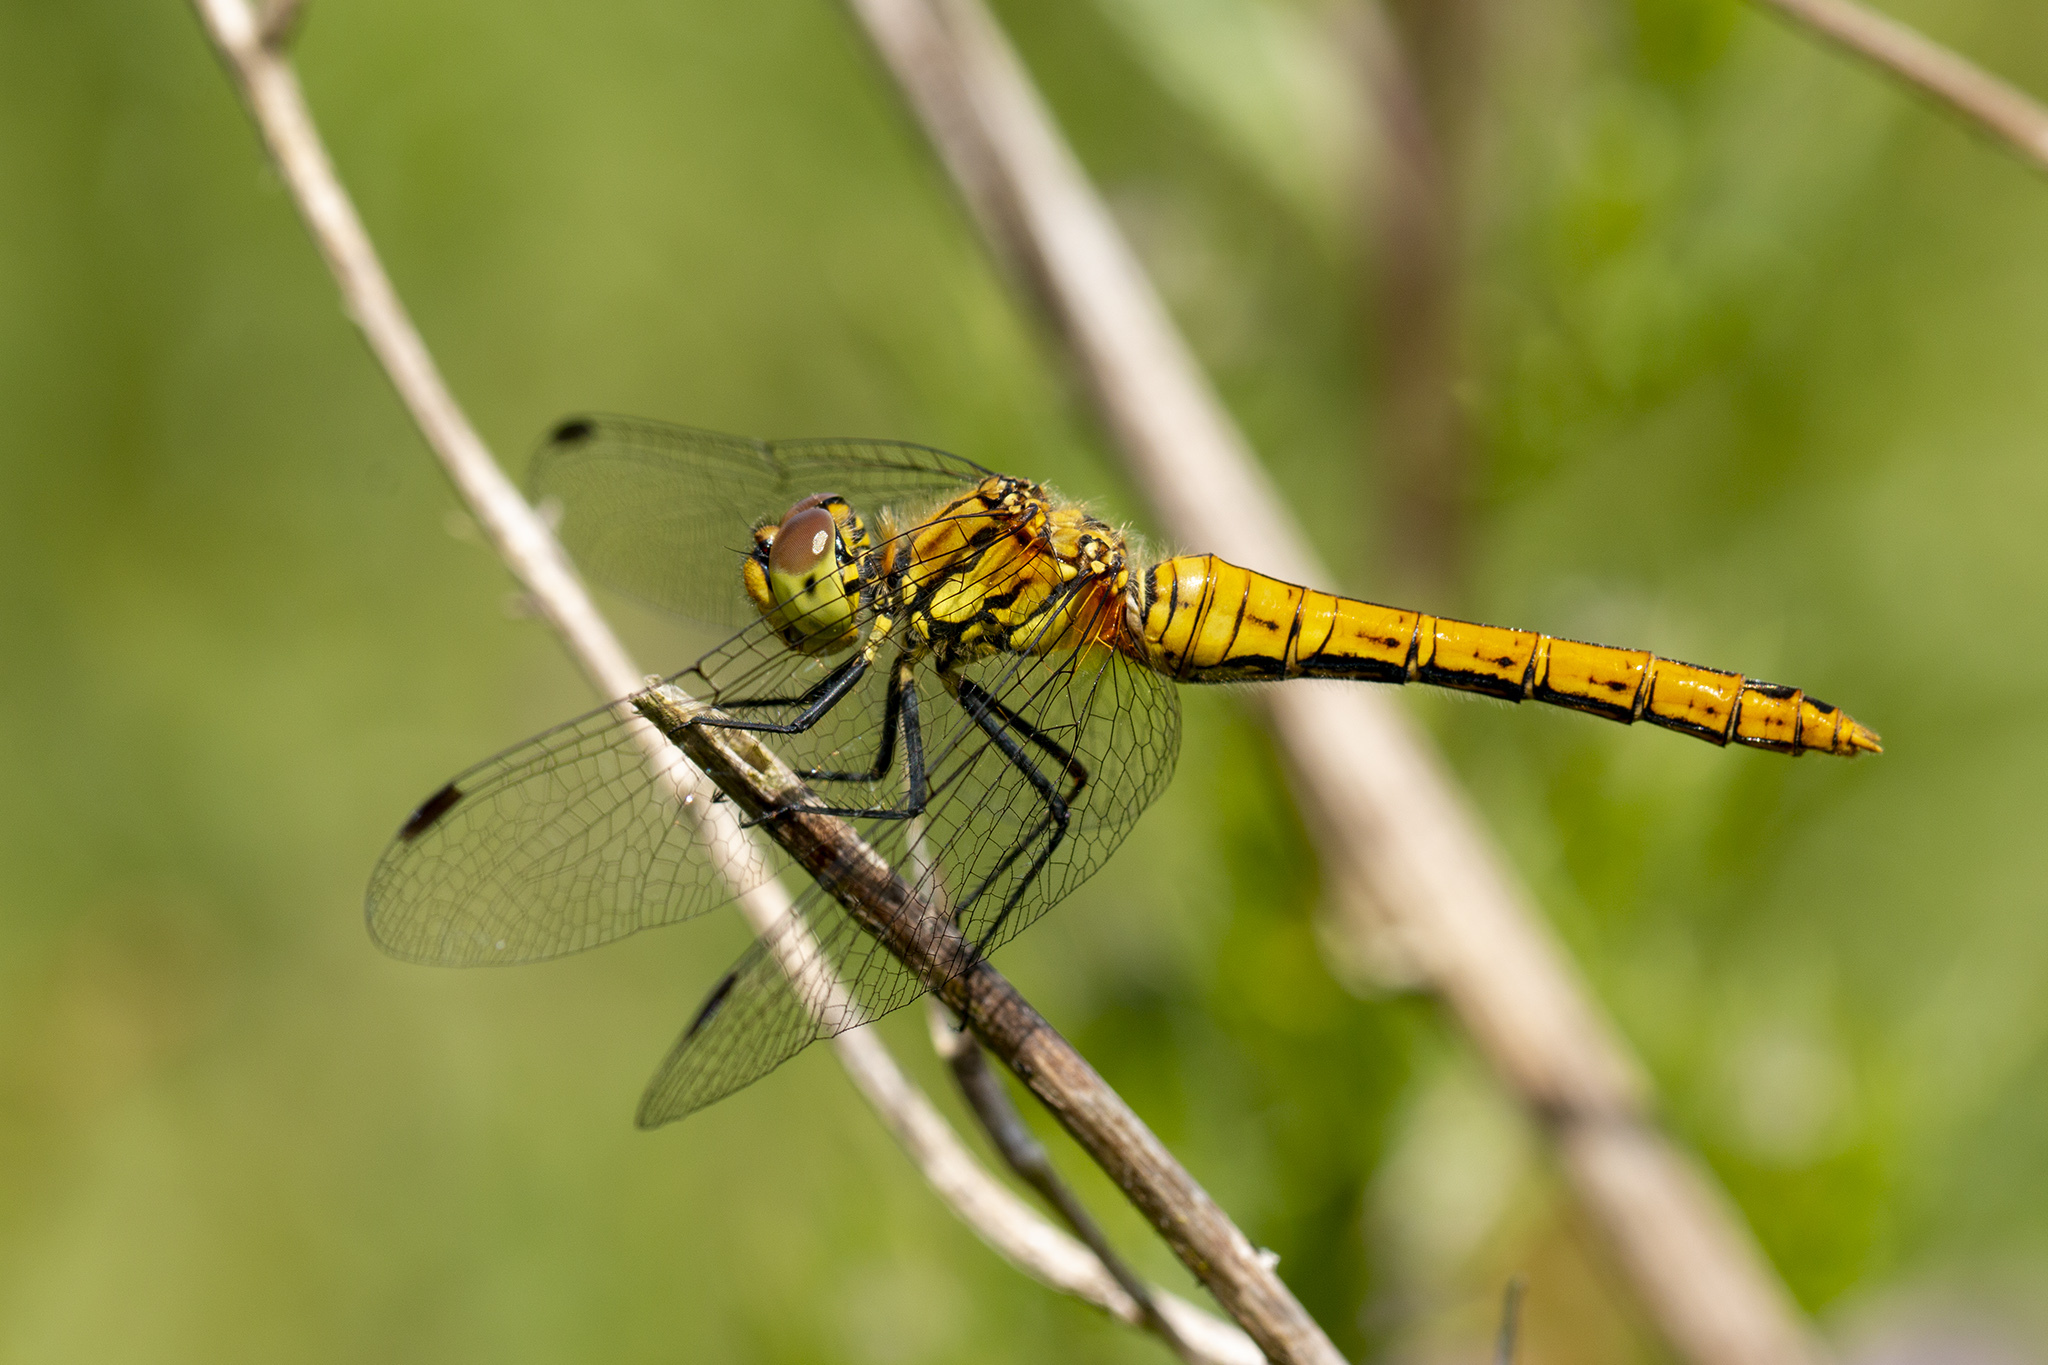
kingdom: Animalia
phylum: Arthropoda
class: Insecta
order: Odonata
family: Libellulidae
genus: Sympetrum
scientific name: Sympetrum sanguineum
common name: Ruddy darter
